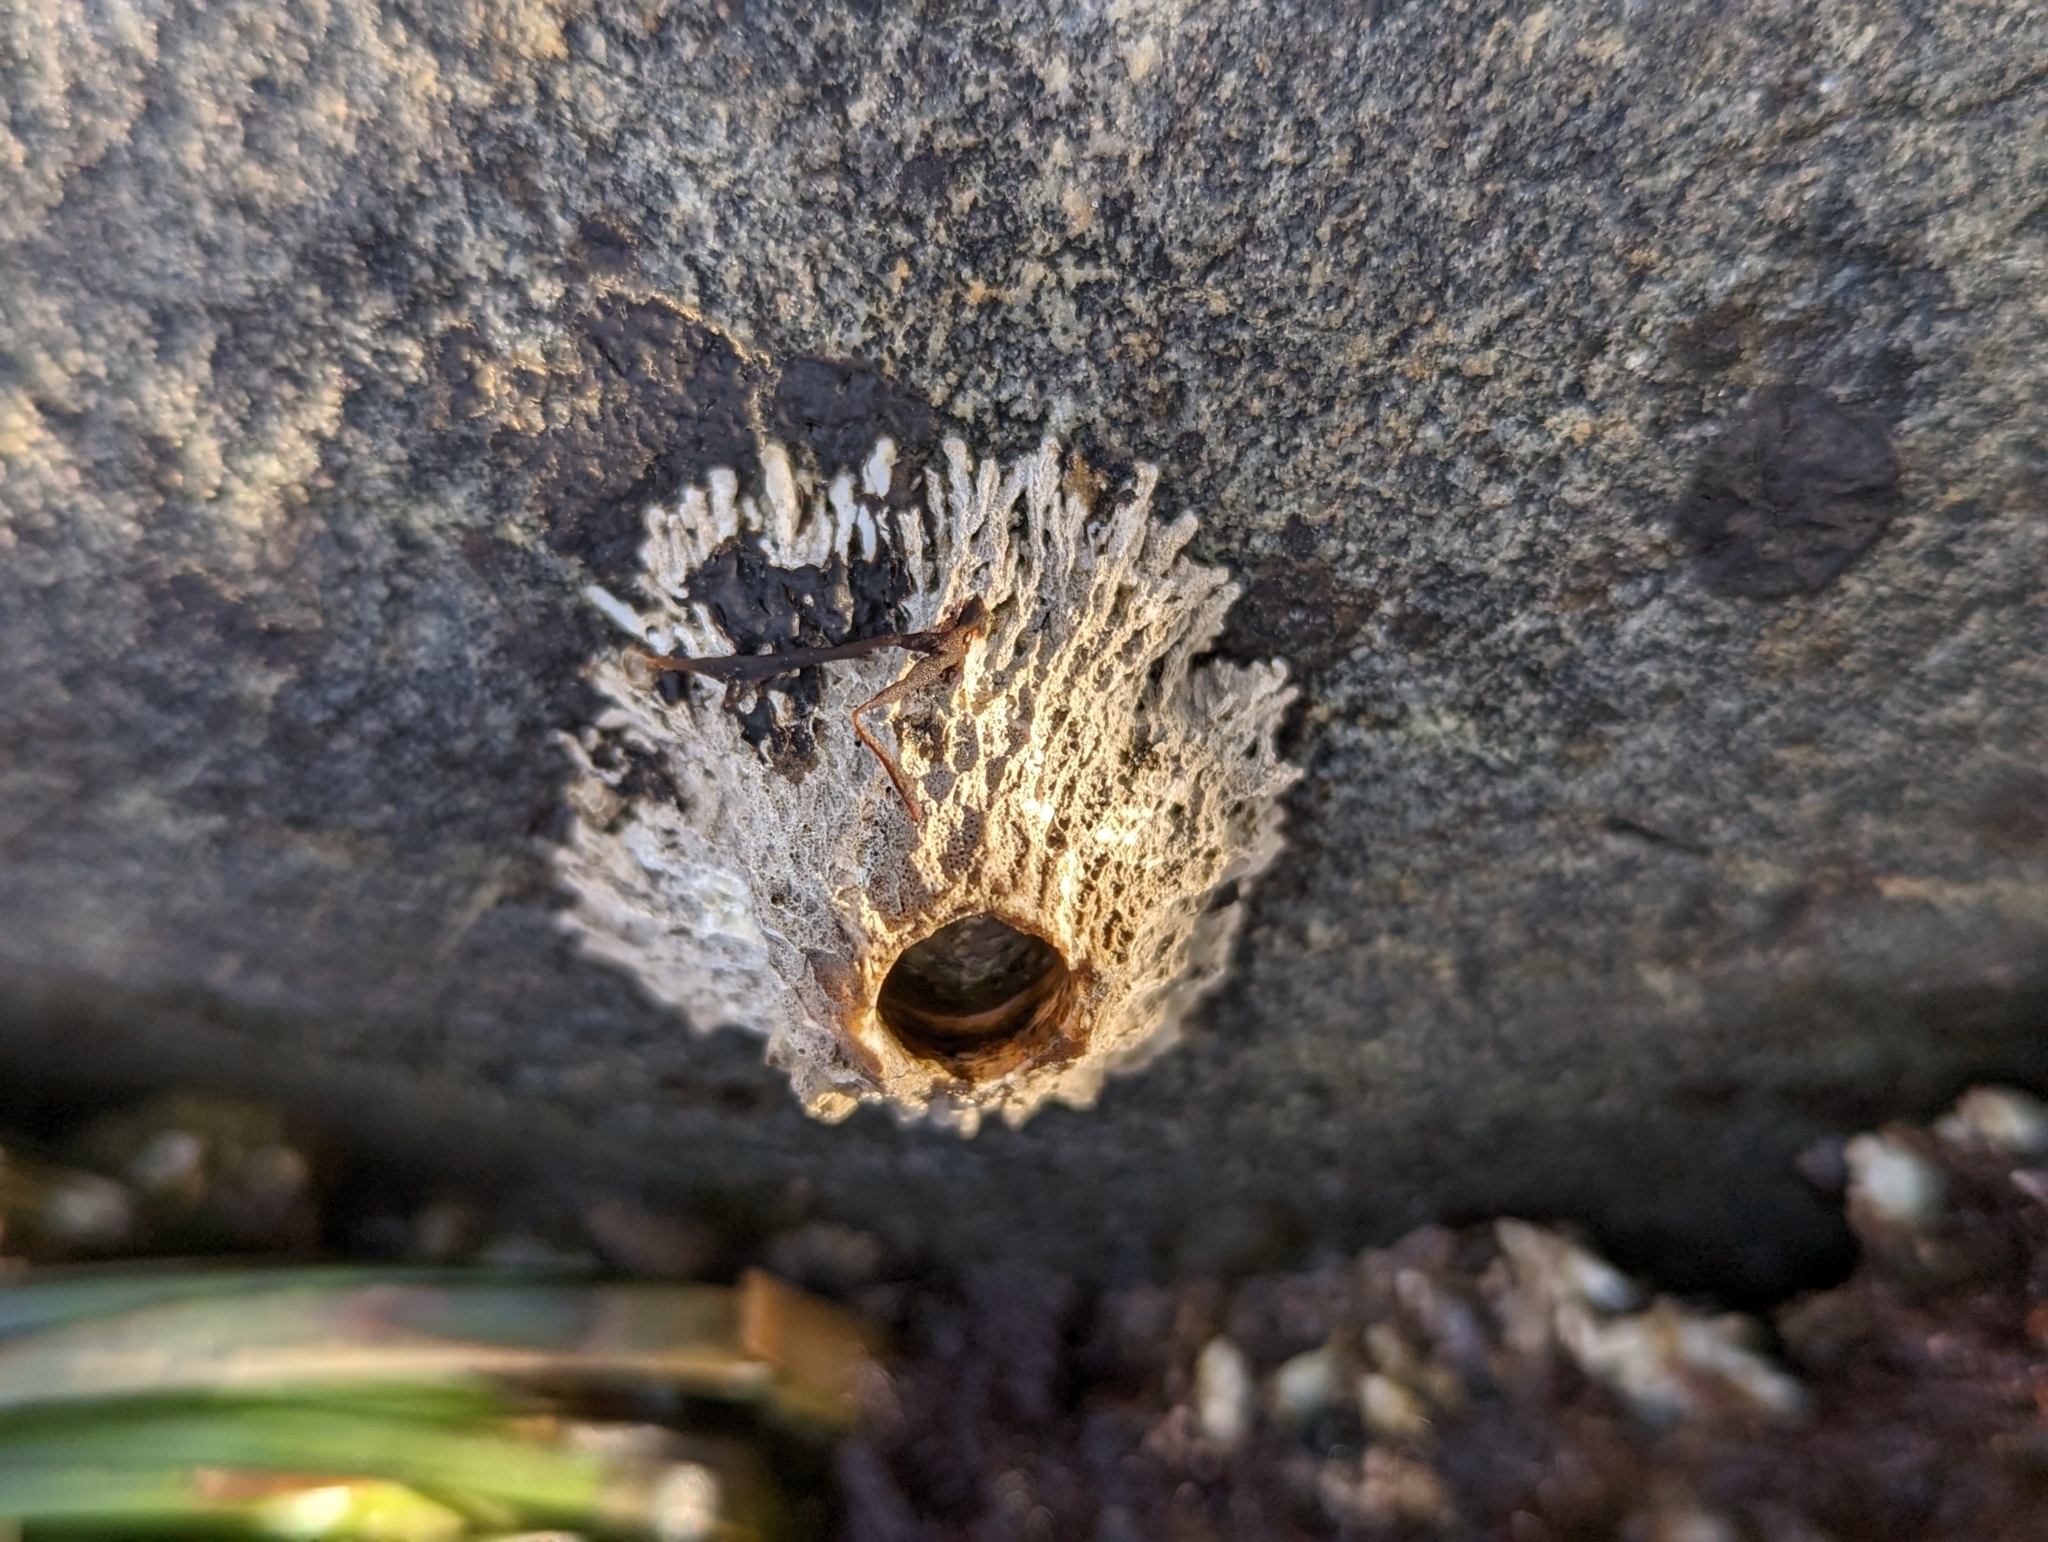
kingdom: Animalia
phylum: Arthropoda
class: Maxillopoda
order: Sessilia
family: Archaeobalanidae
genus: Semibalanus
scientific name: Semibalanus cariosus
